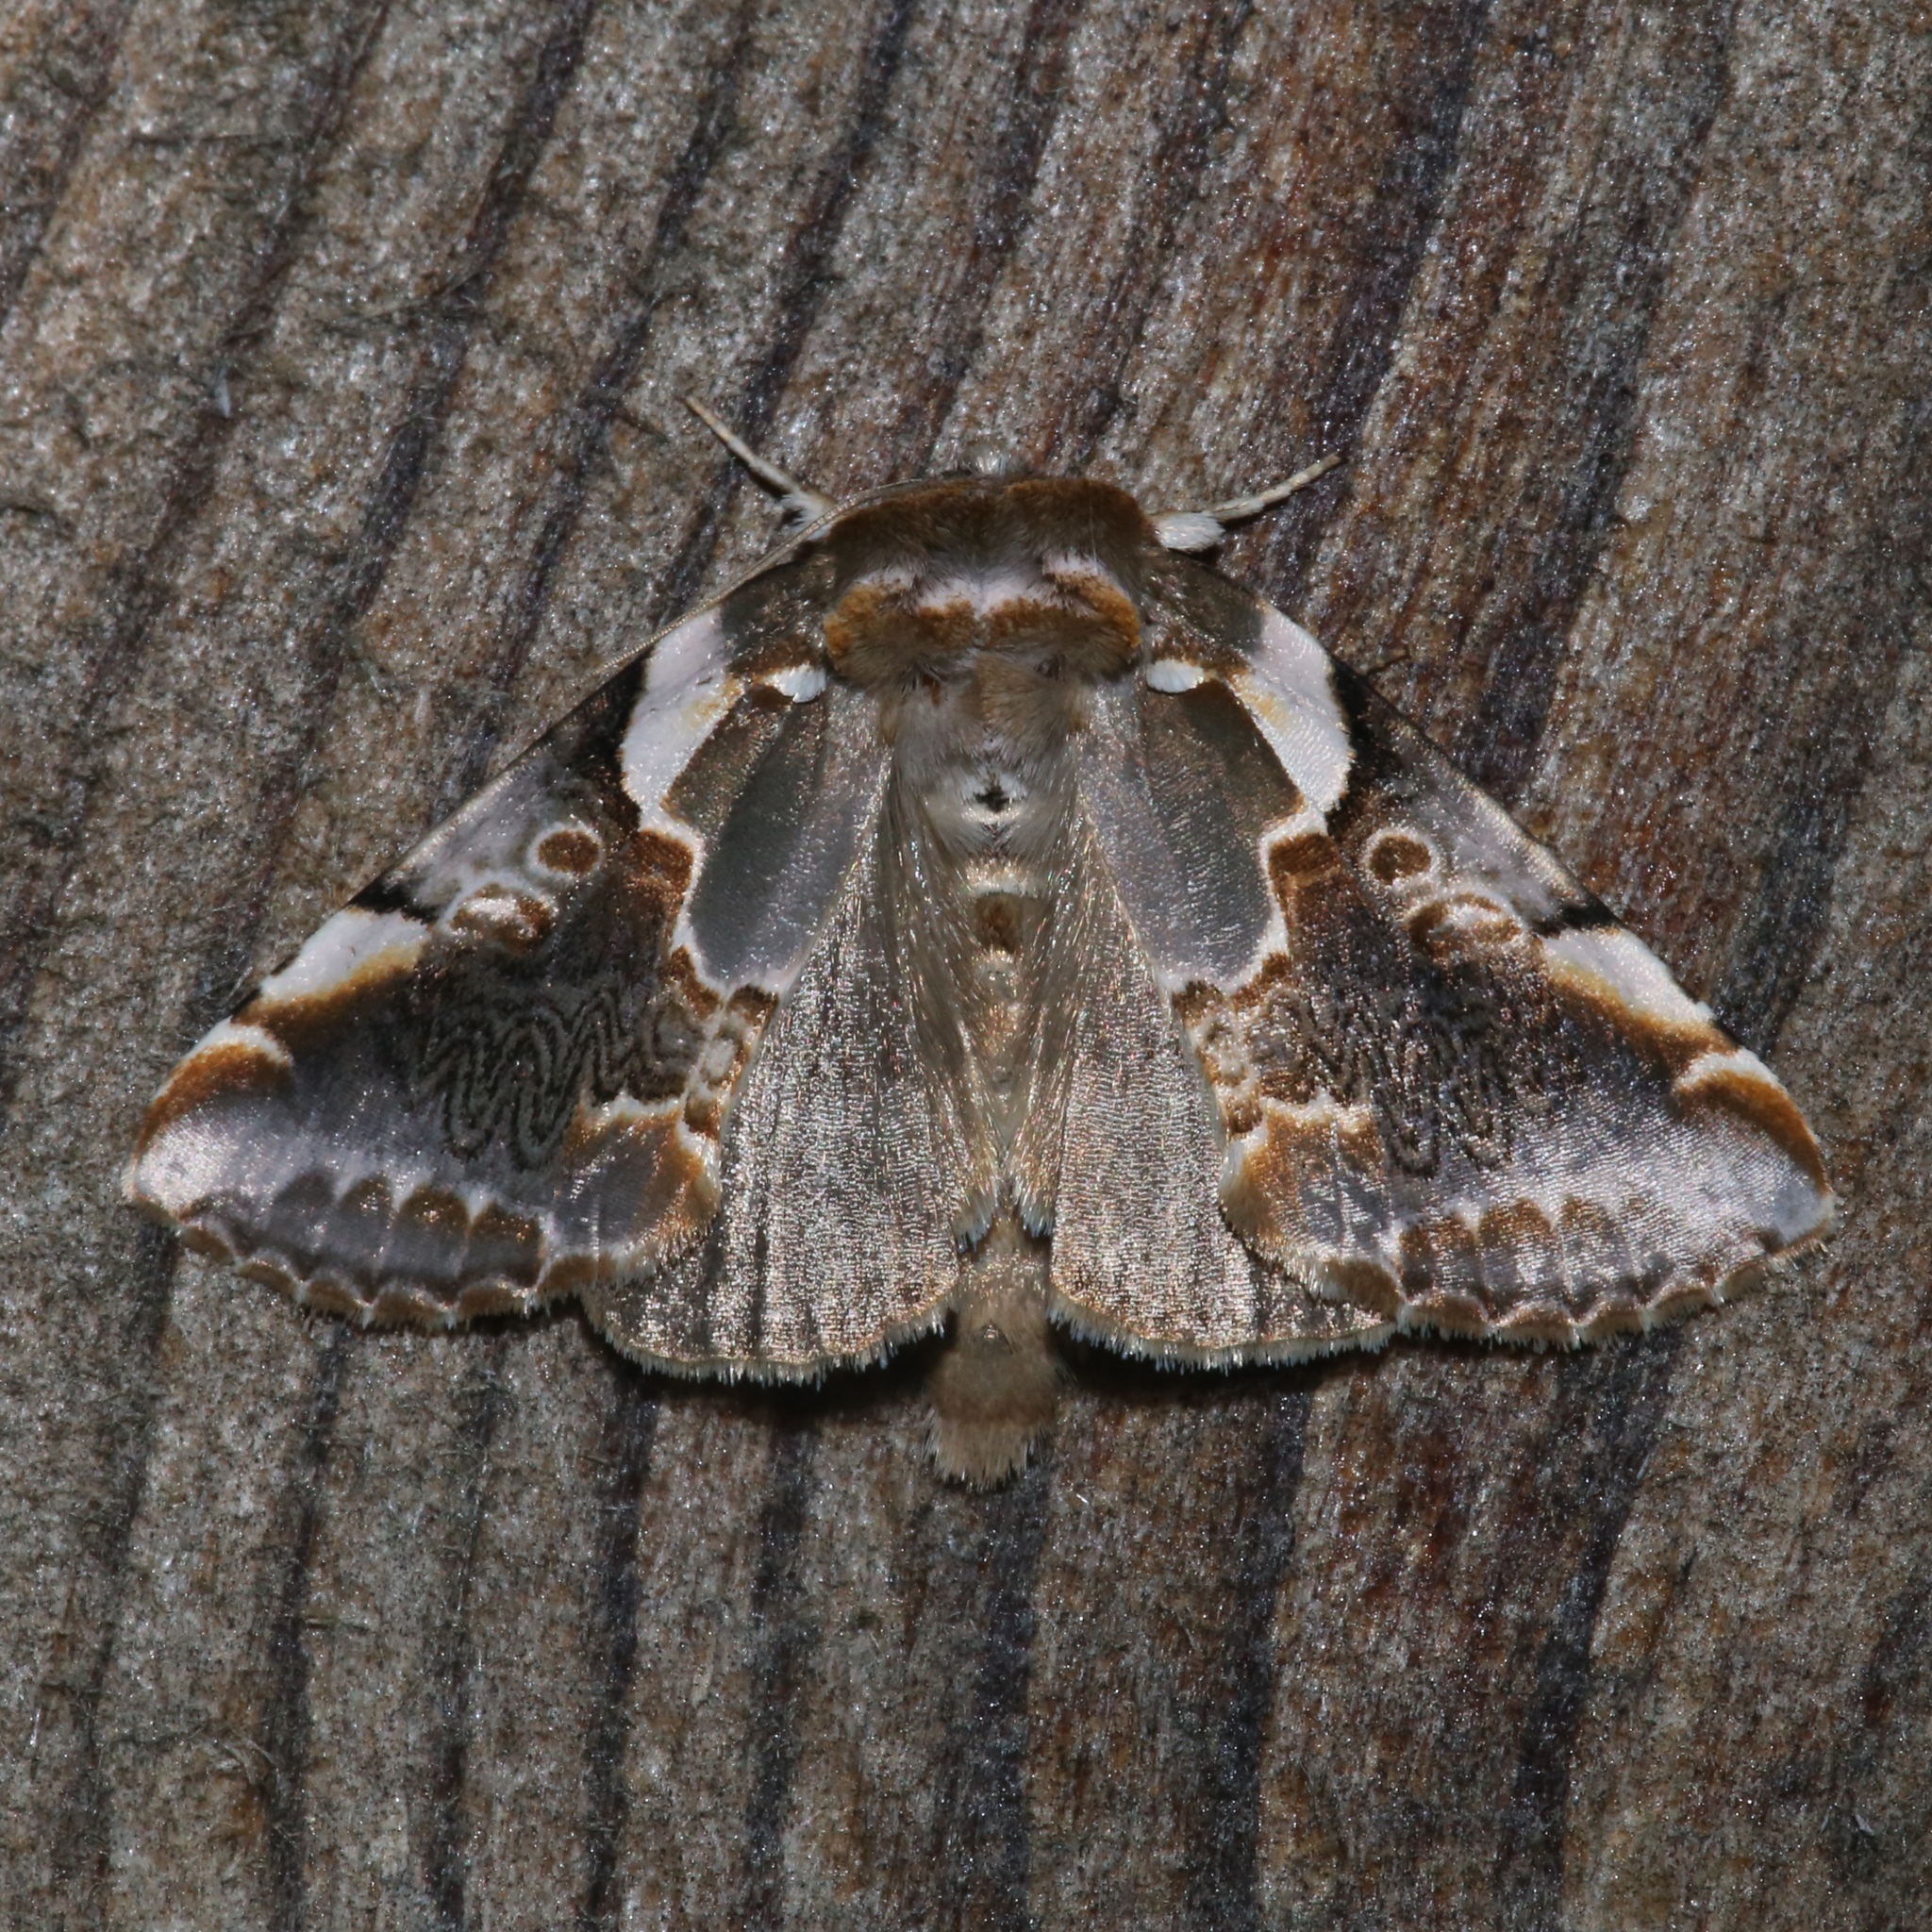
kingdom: Animalia
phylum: Arthropoda
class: Insecta
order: Lepidoptera
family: Drepanidae
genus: Habrosyne
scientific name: Habrosyne gloriosa
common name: Glorious habrosyne moth
